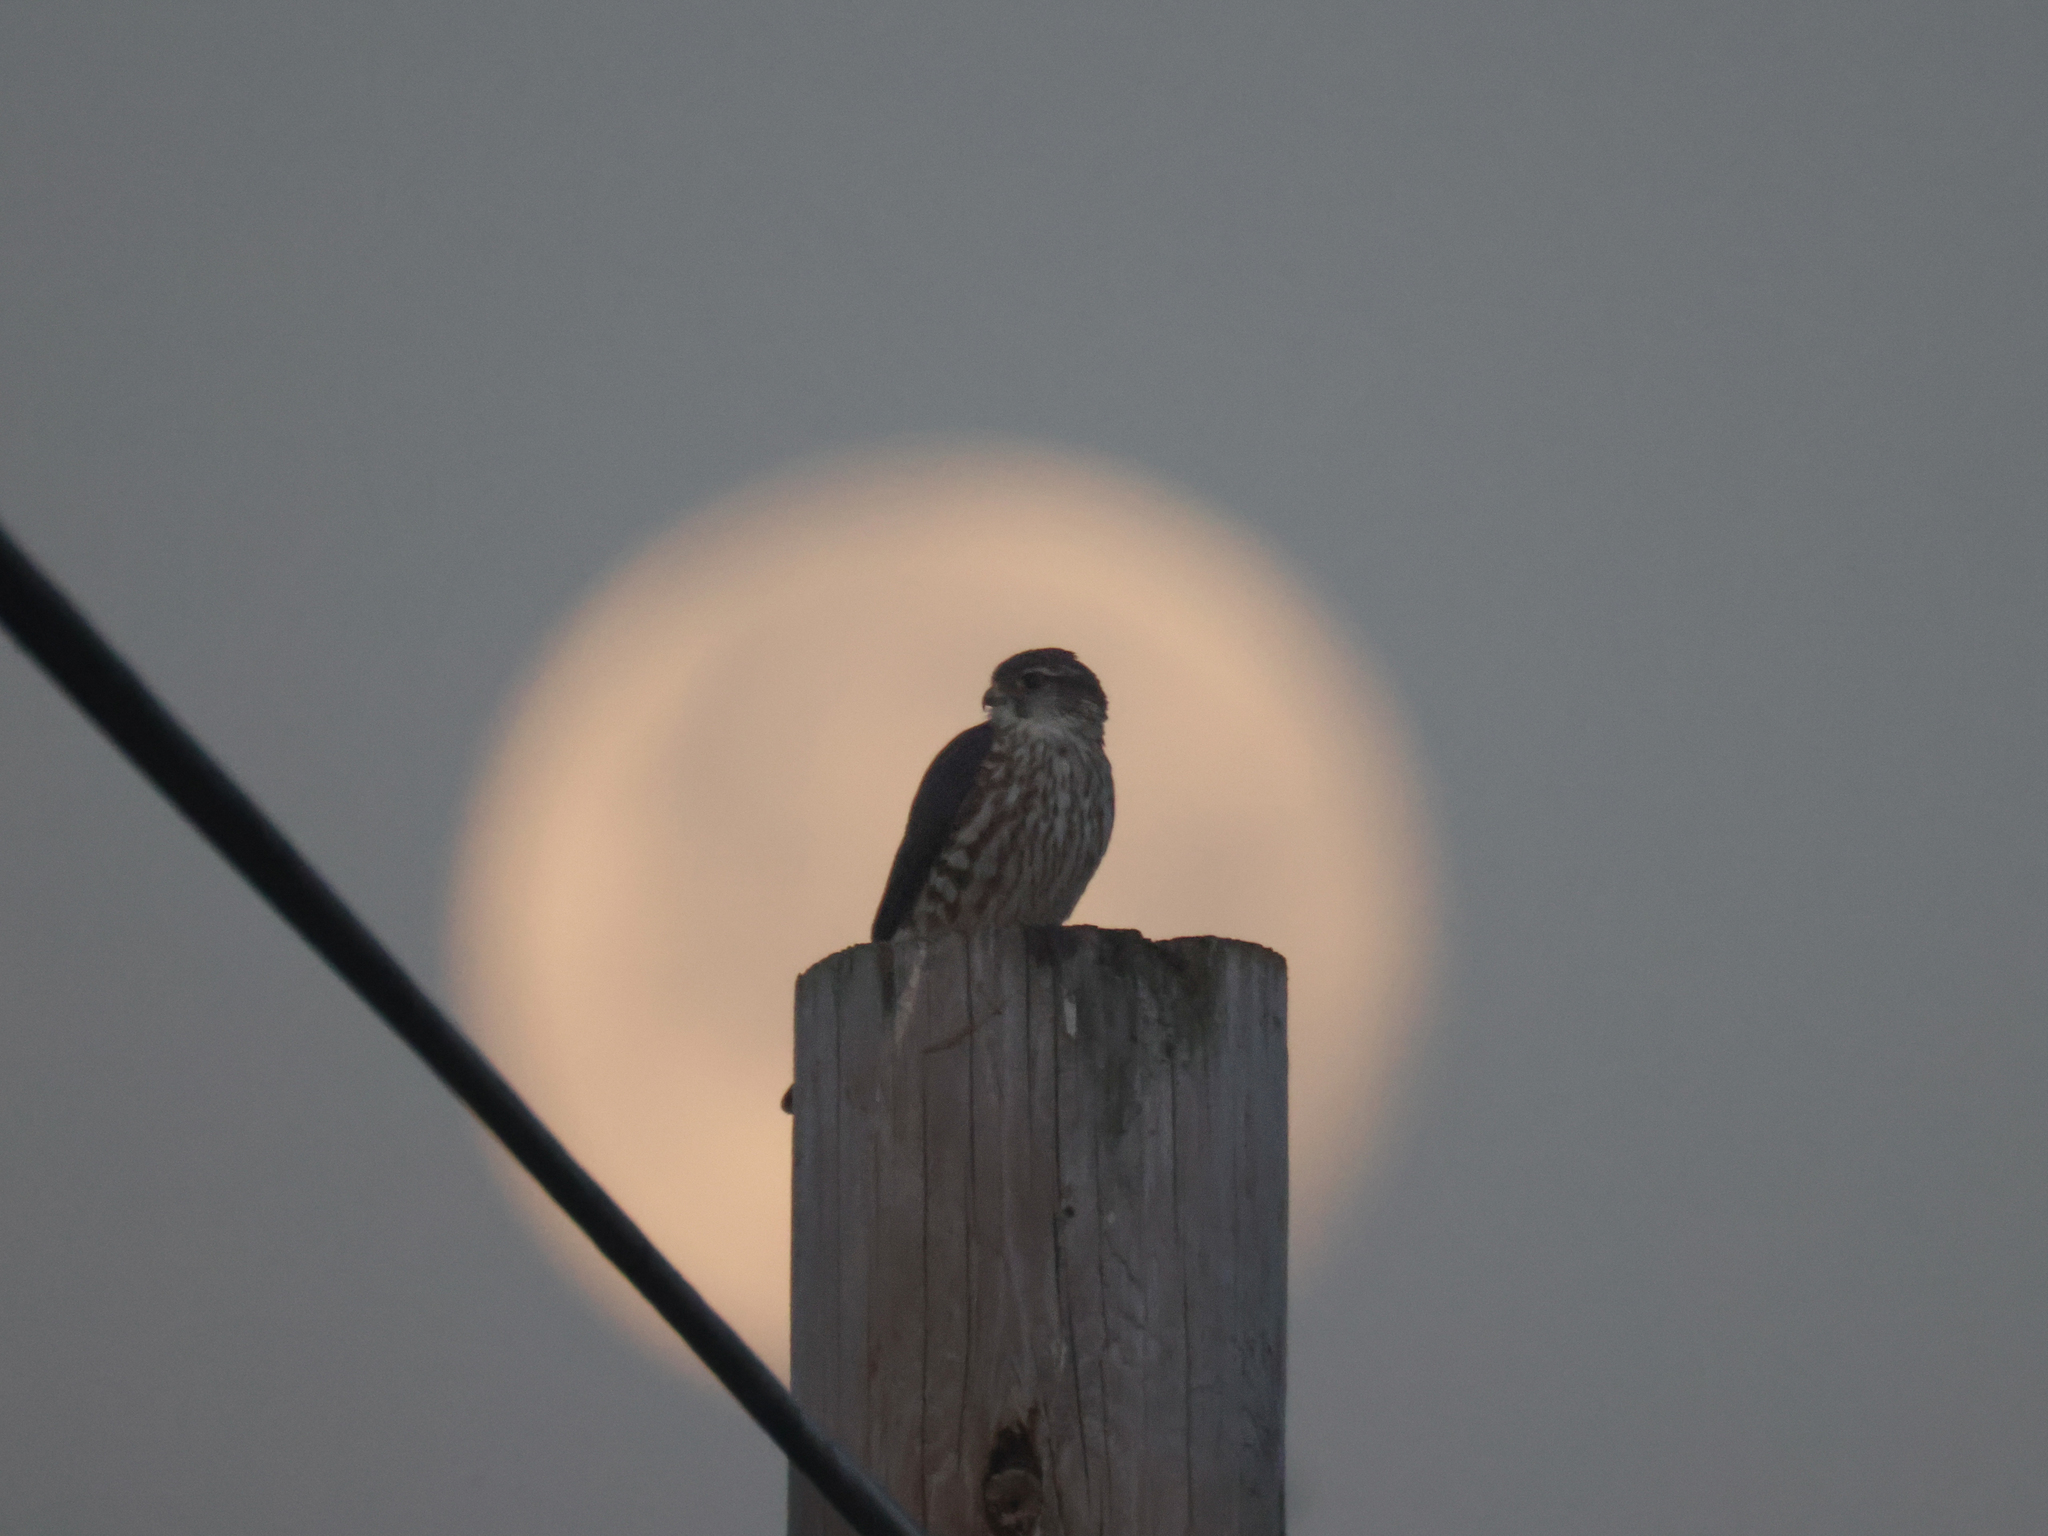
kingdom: Animalia
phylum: Chordata
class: Aves
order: Falconiformes
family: Falconidae
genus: Falco
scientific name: Falco columbarius
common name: Merlin
